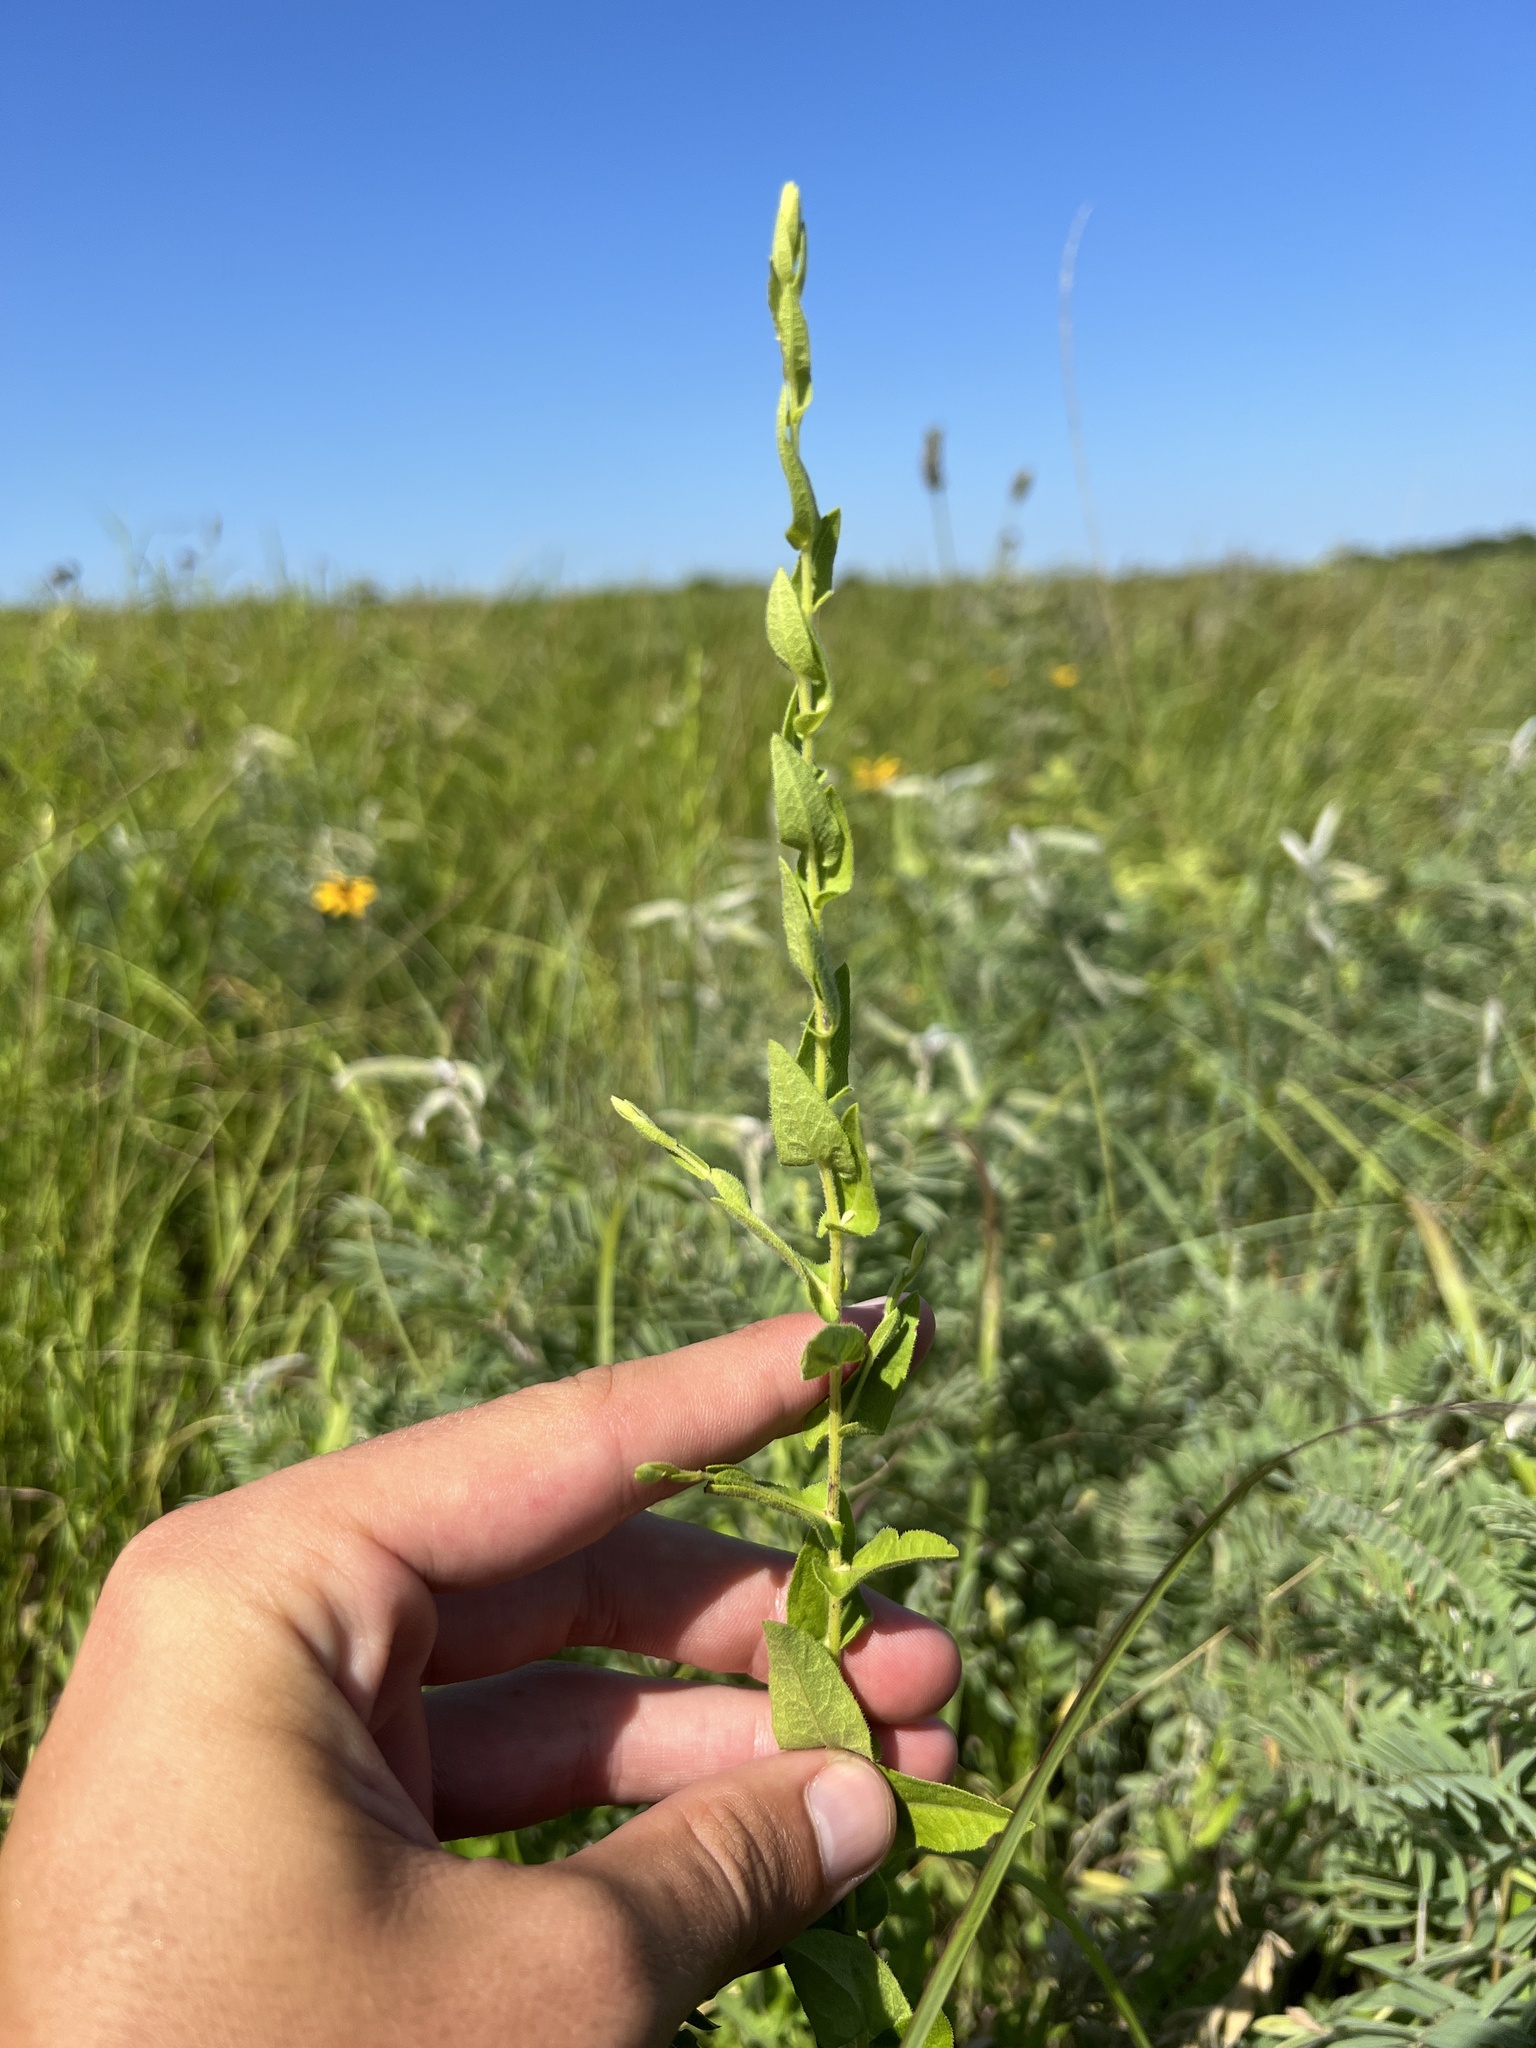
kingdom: Plantae
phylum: Tracheophyta
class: Magnoliopsida
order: Asterales
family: Asteraceae
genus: Symphyotrichum
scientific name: Symphyotrichum patens
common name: Late purple aster
